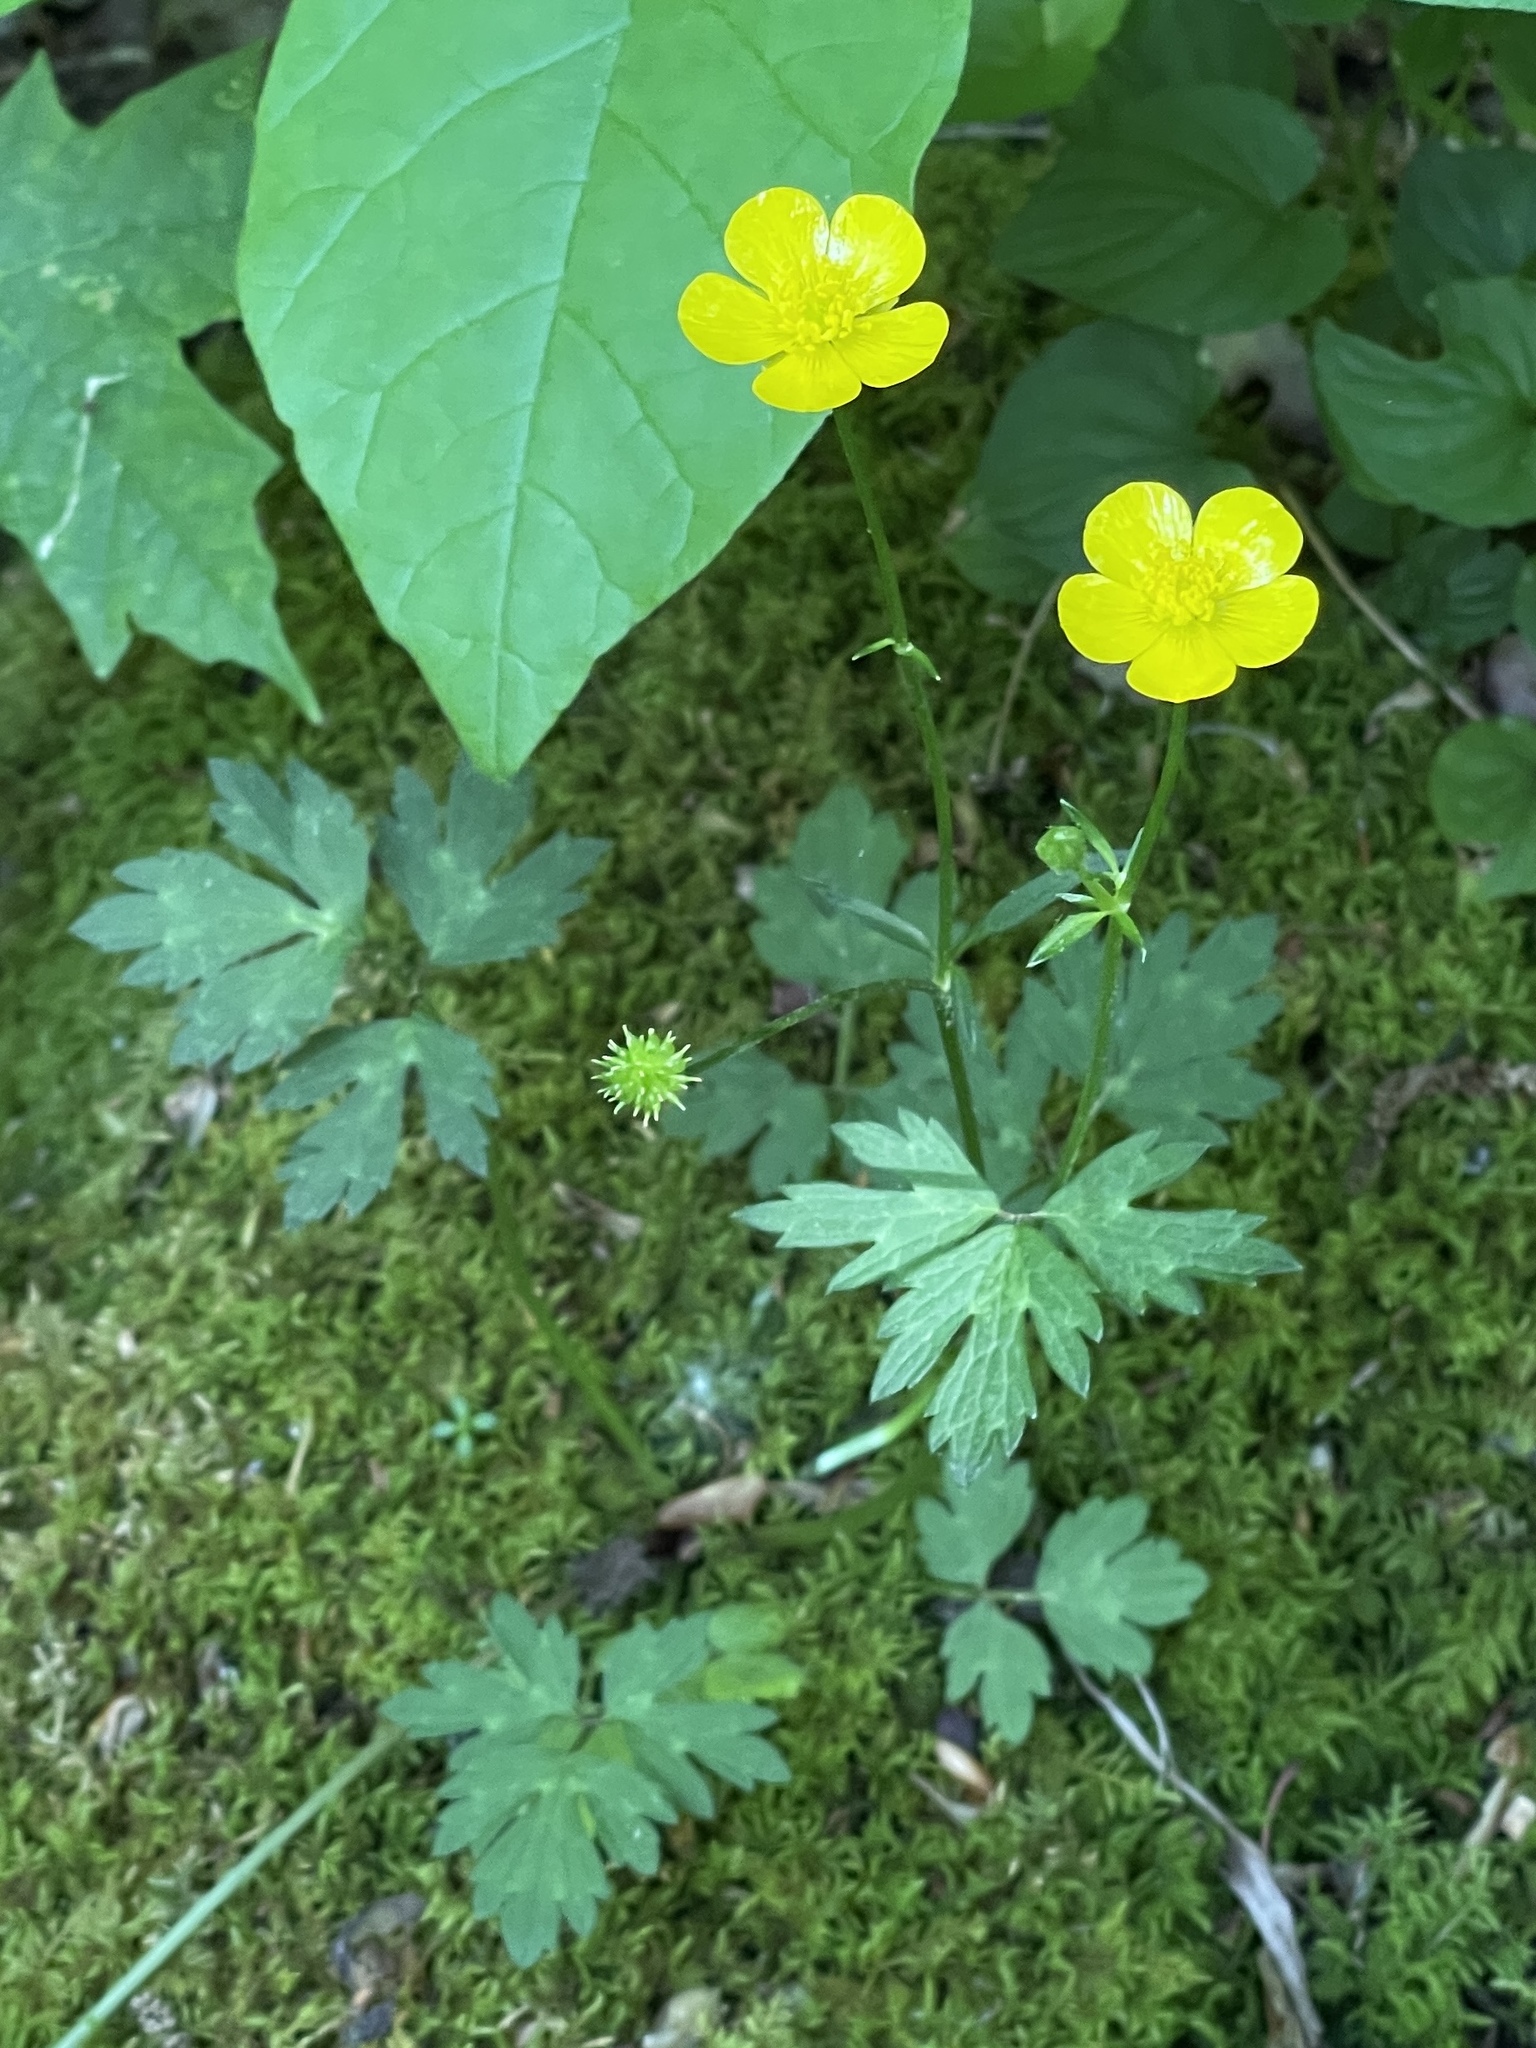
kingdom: Plantae
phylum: Tracheophyta
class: Magnoliopsida
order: Ranunculales
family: Ranunculaceae
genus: Ranunculus
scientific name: Ranunculus repens
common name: Creeping buttercup
